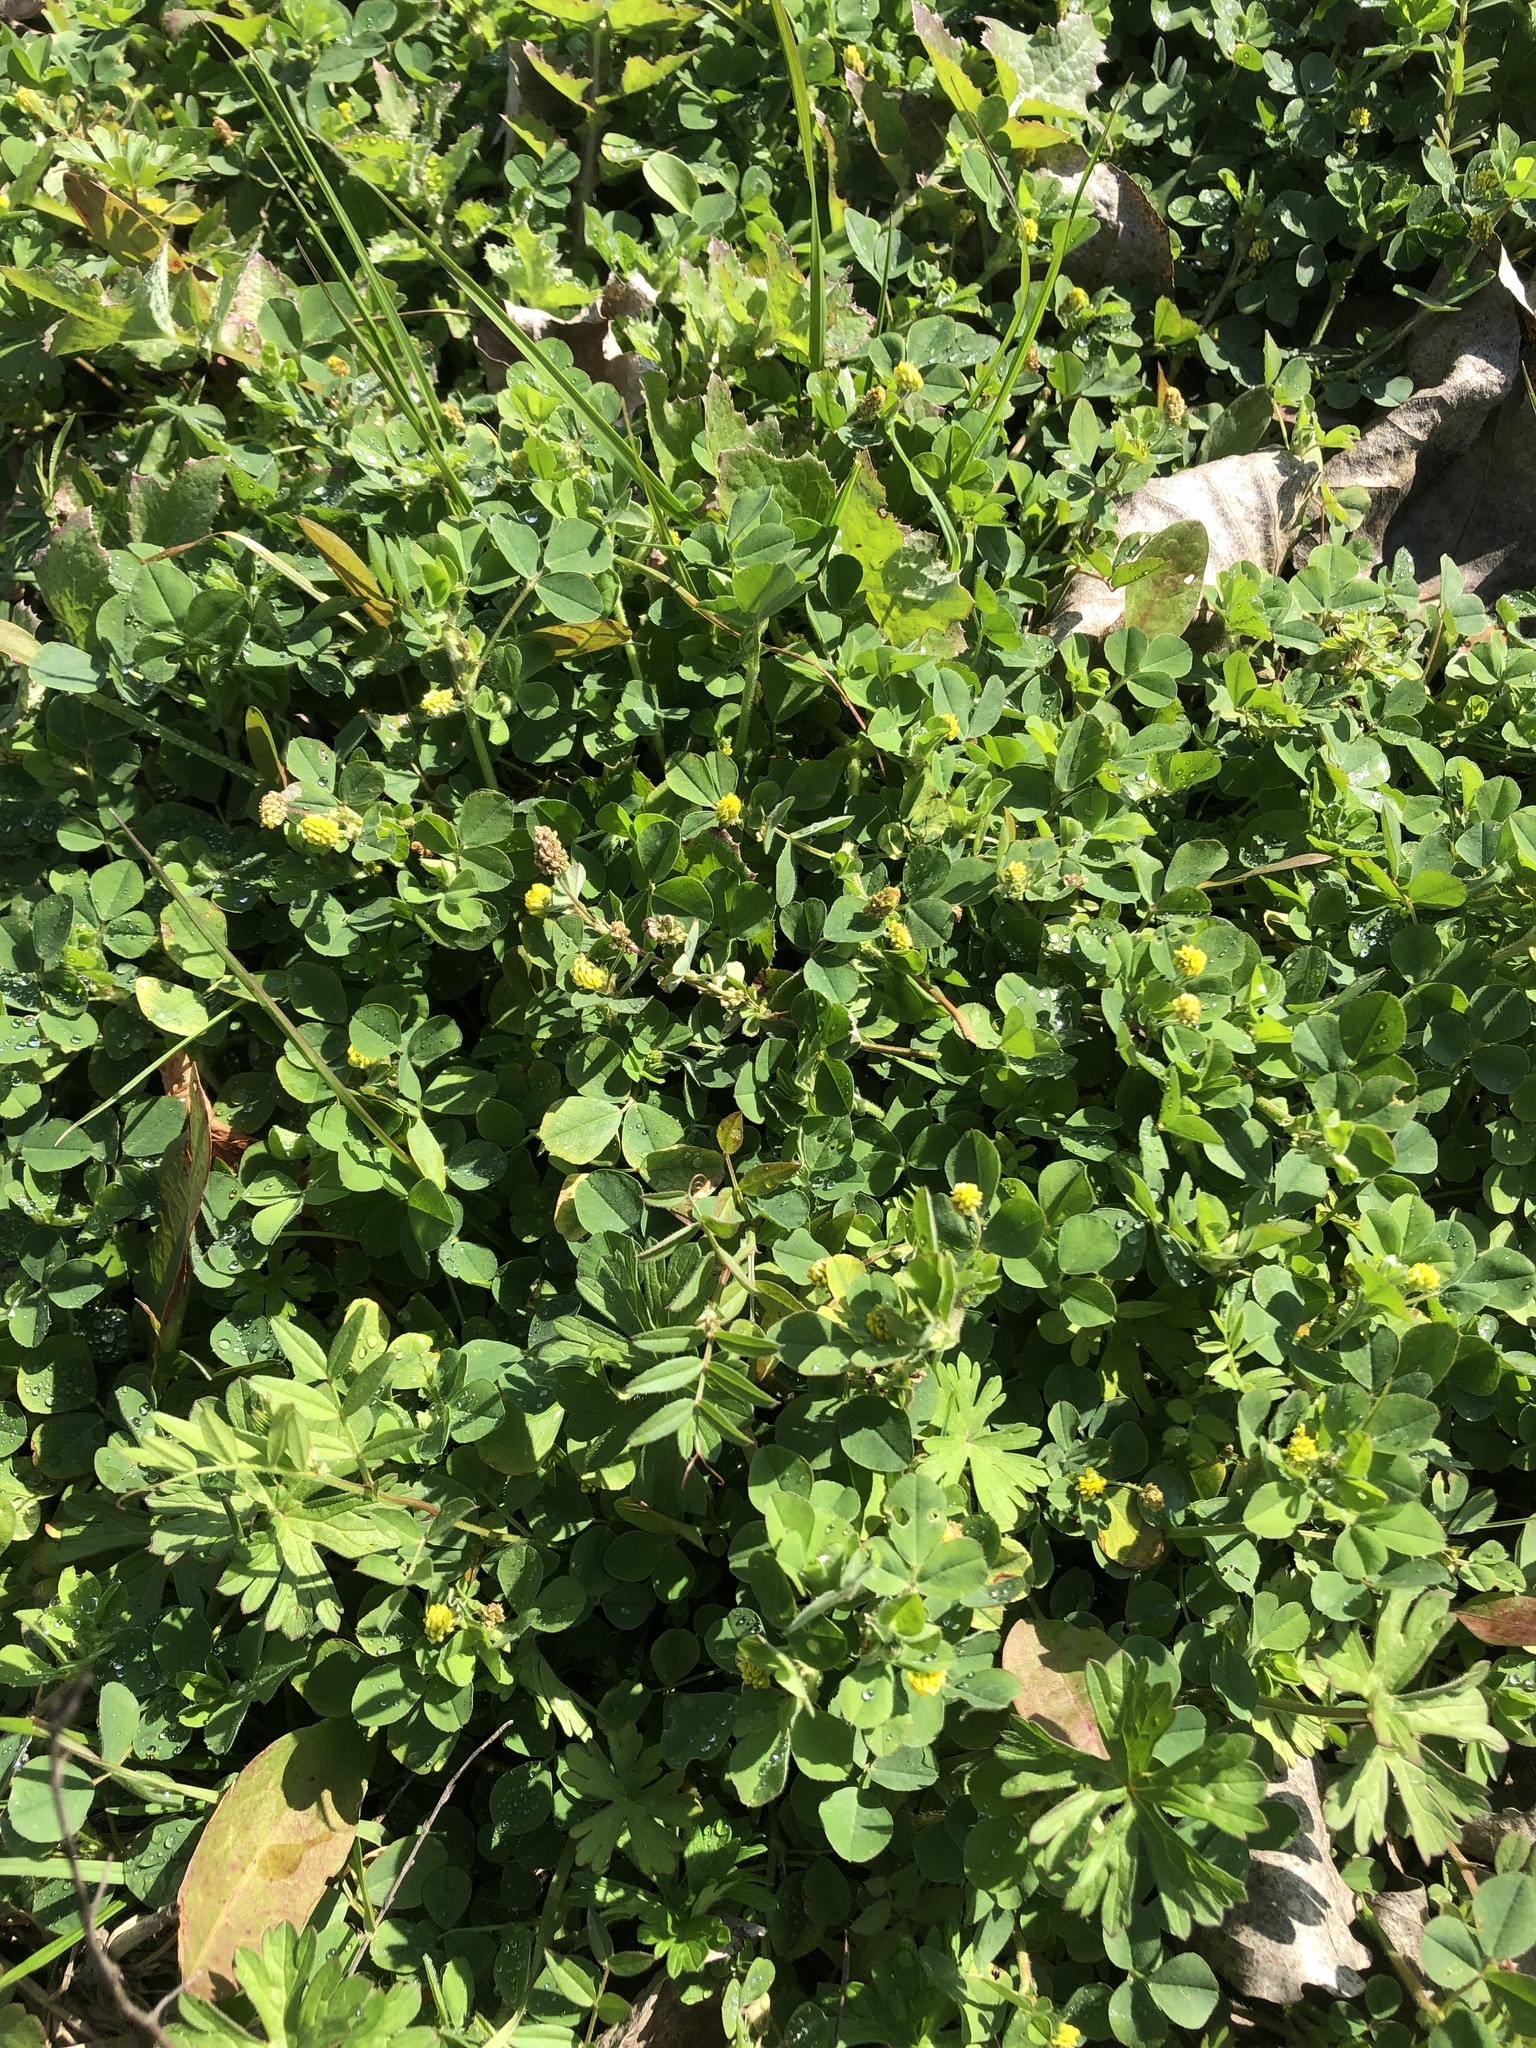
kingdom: Plantae
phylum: Tracheophyta
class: Magnoliopsida
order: Fabales
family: Fabaceae
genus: Medicago
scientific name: Medicago lupulina
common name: Black medick
